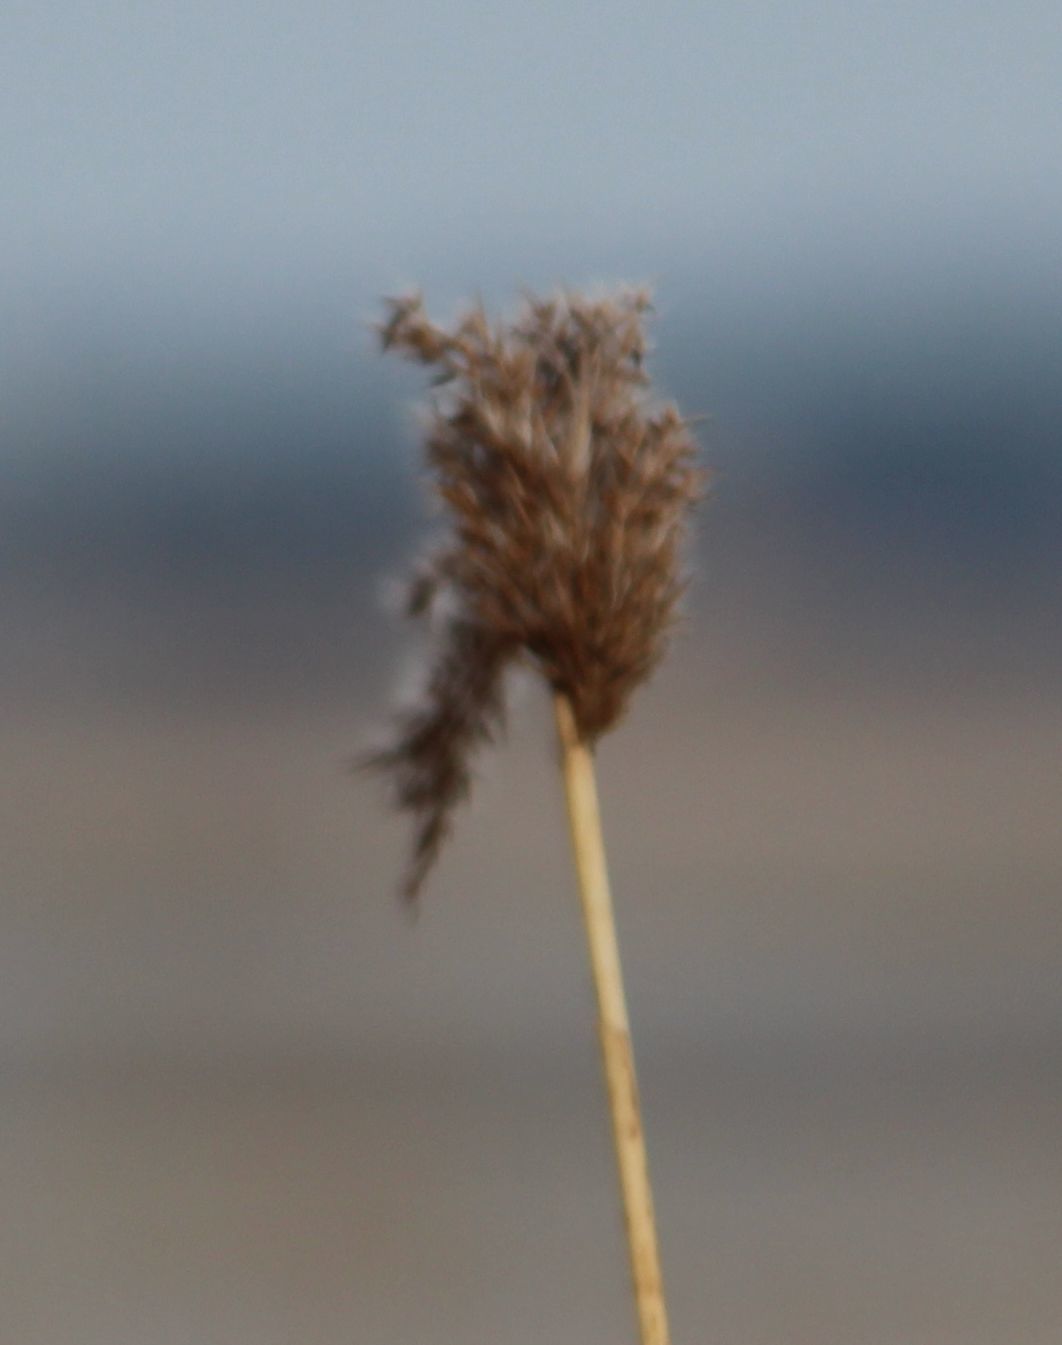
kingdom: Plantae
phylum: Tracheophyta
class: Liliopsida
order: Poales
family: Poaceae
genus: Phragmites
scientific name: Phragmites australis
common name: Common reed
